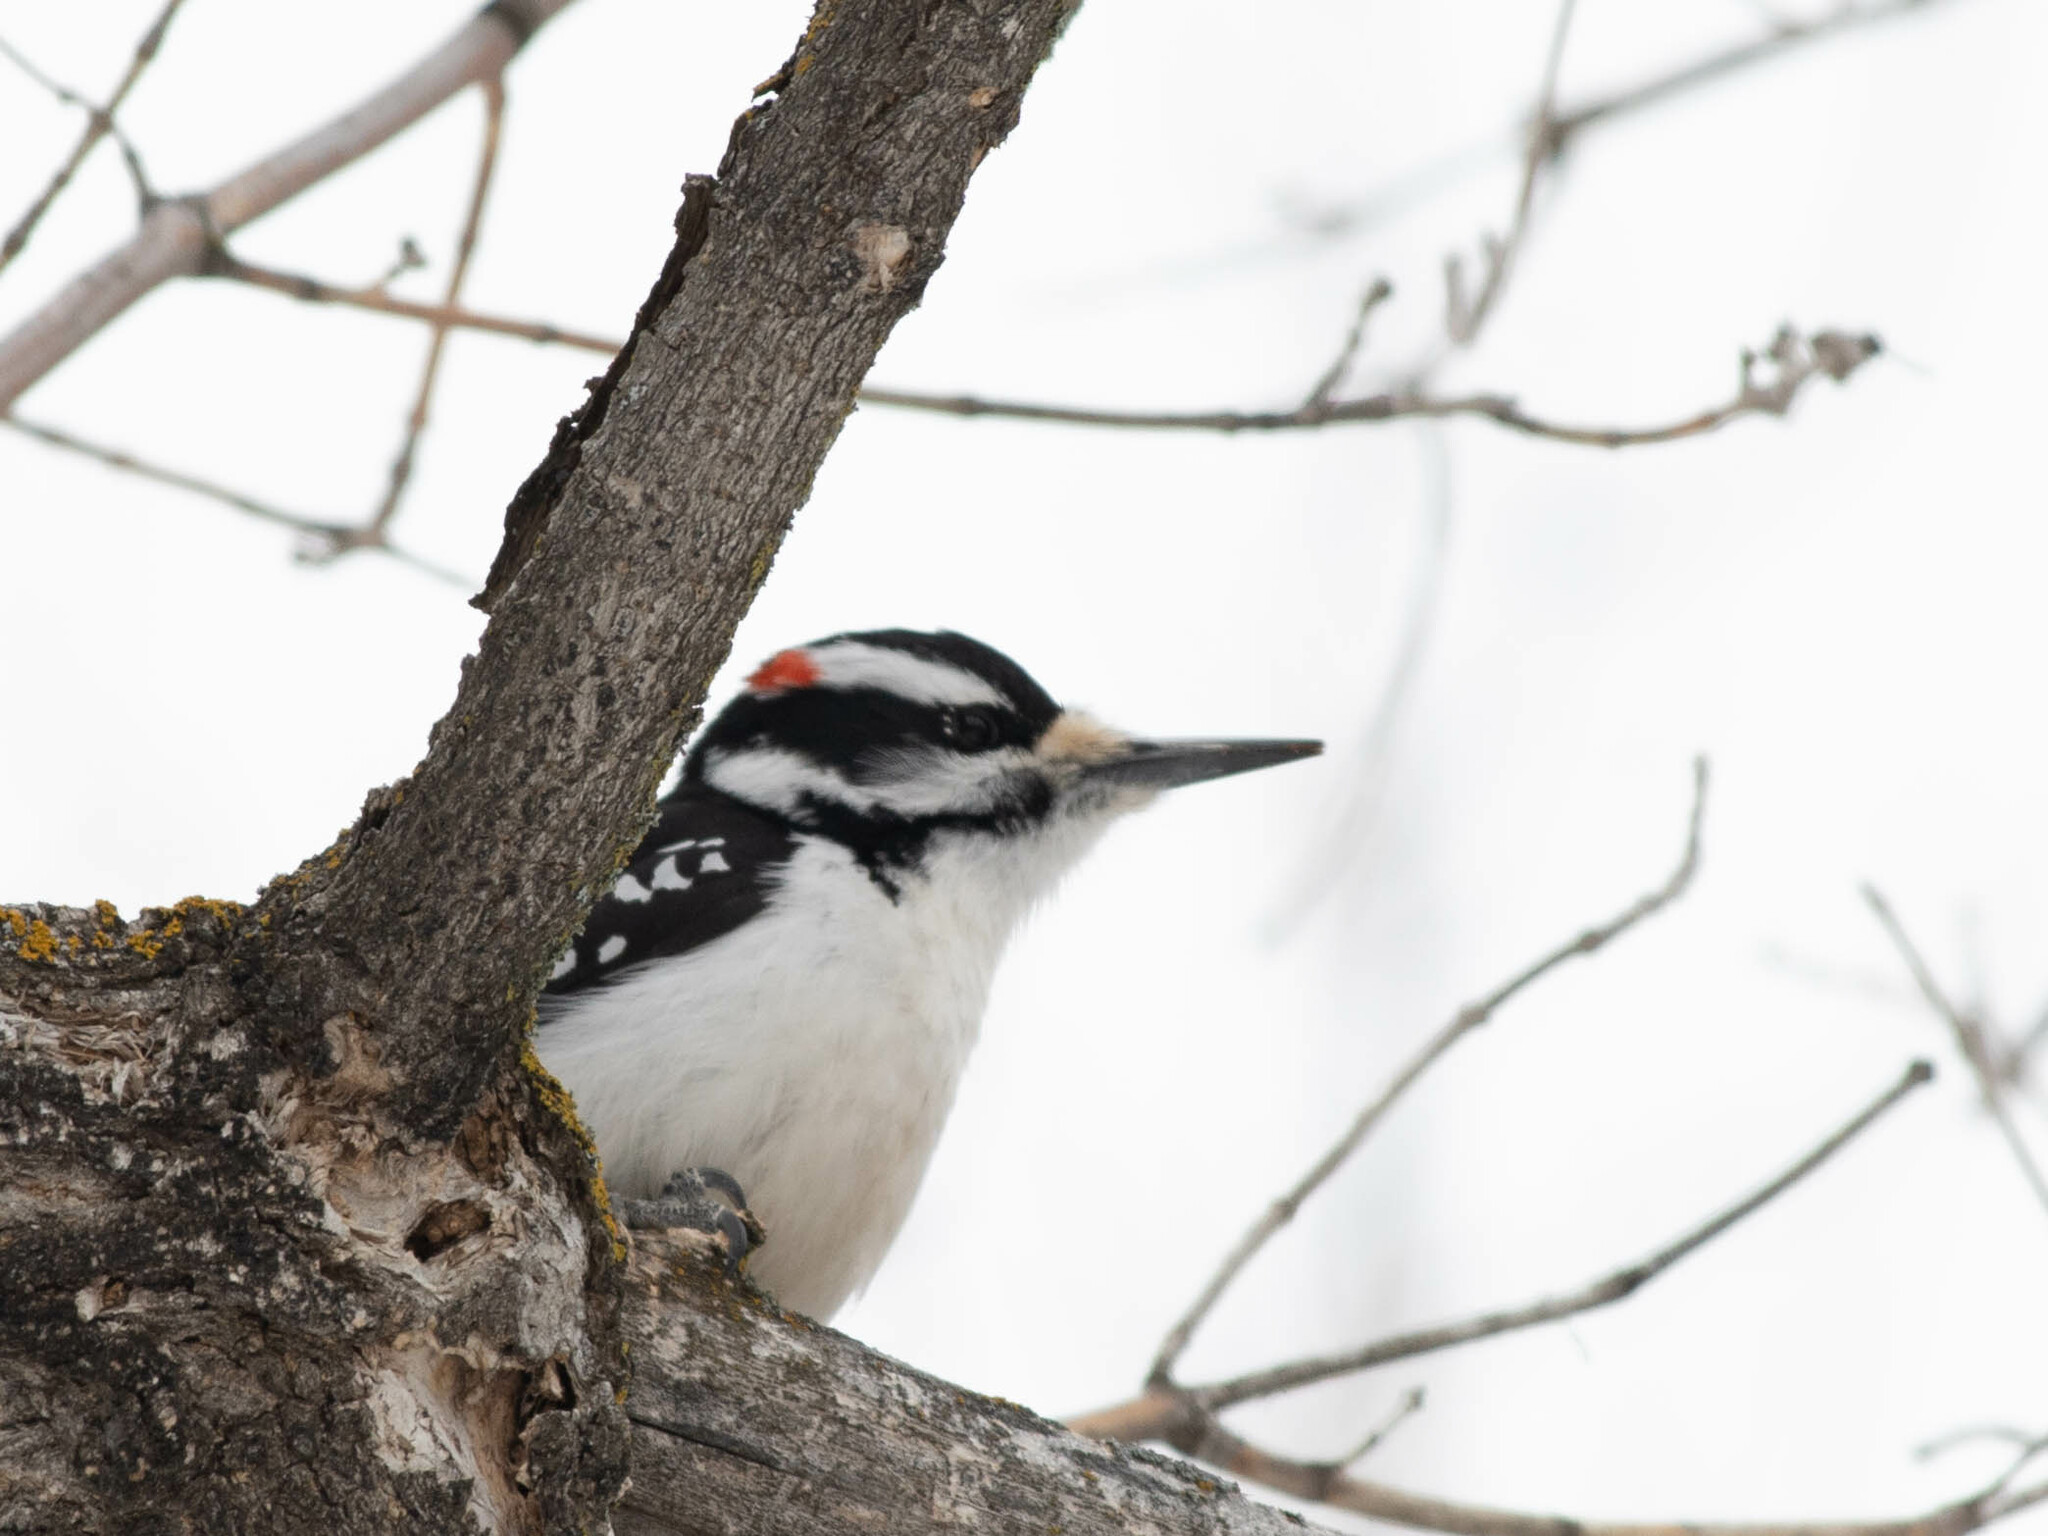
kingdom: Animalia
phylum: Chordata
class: Aves
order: Piciformes
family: Picidae
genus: Leuconotopicus
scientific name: Leuconotopicus villosus
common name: Hairy woodpecker
